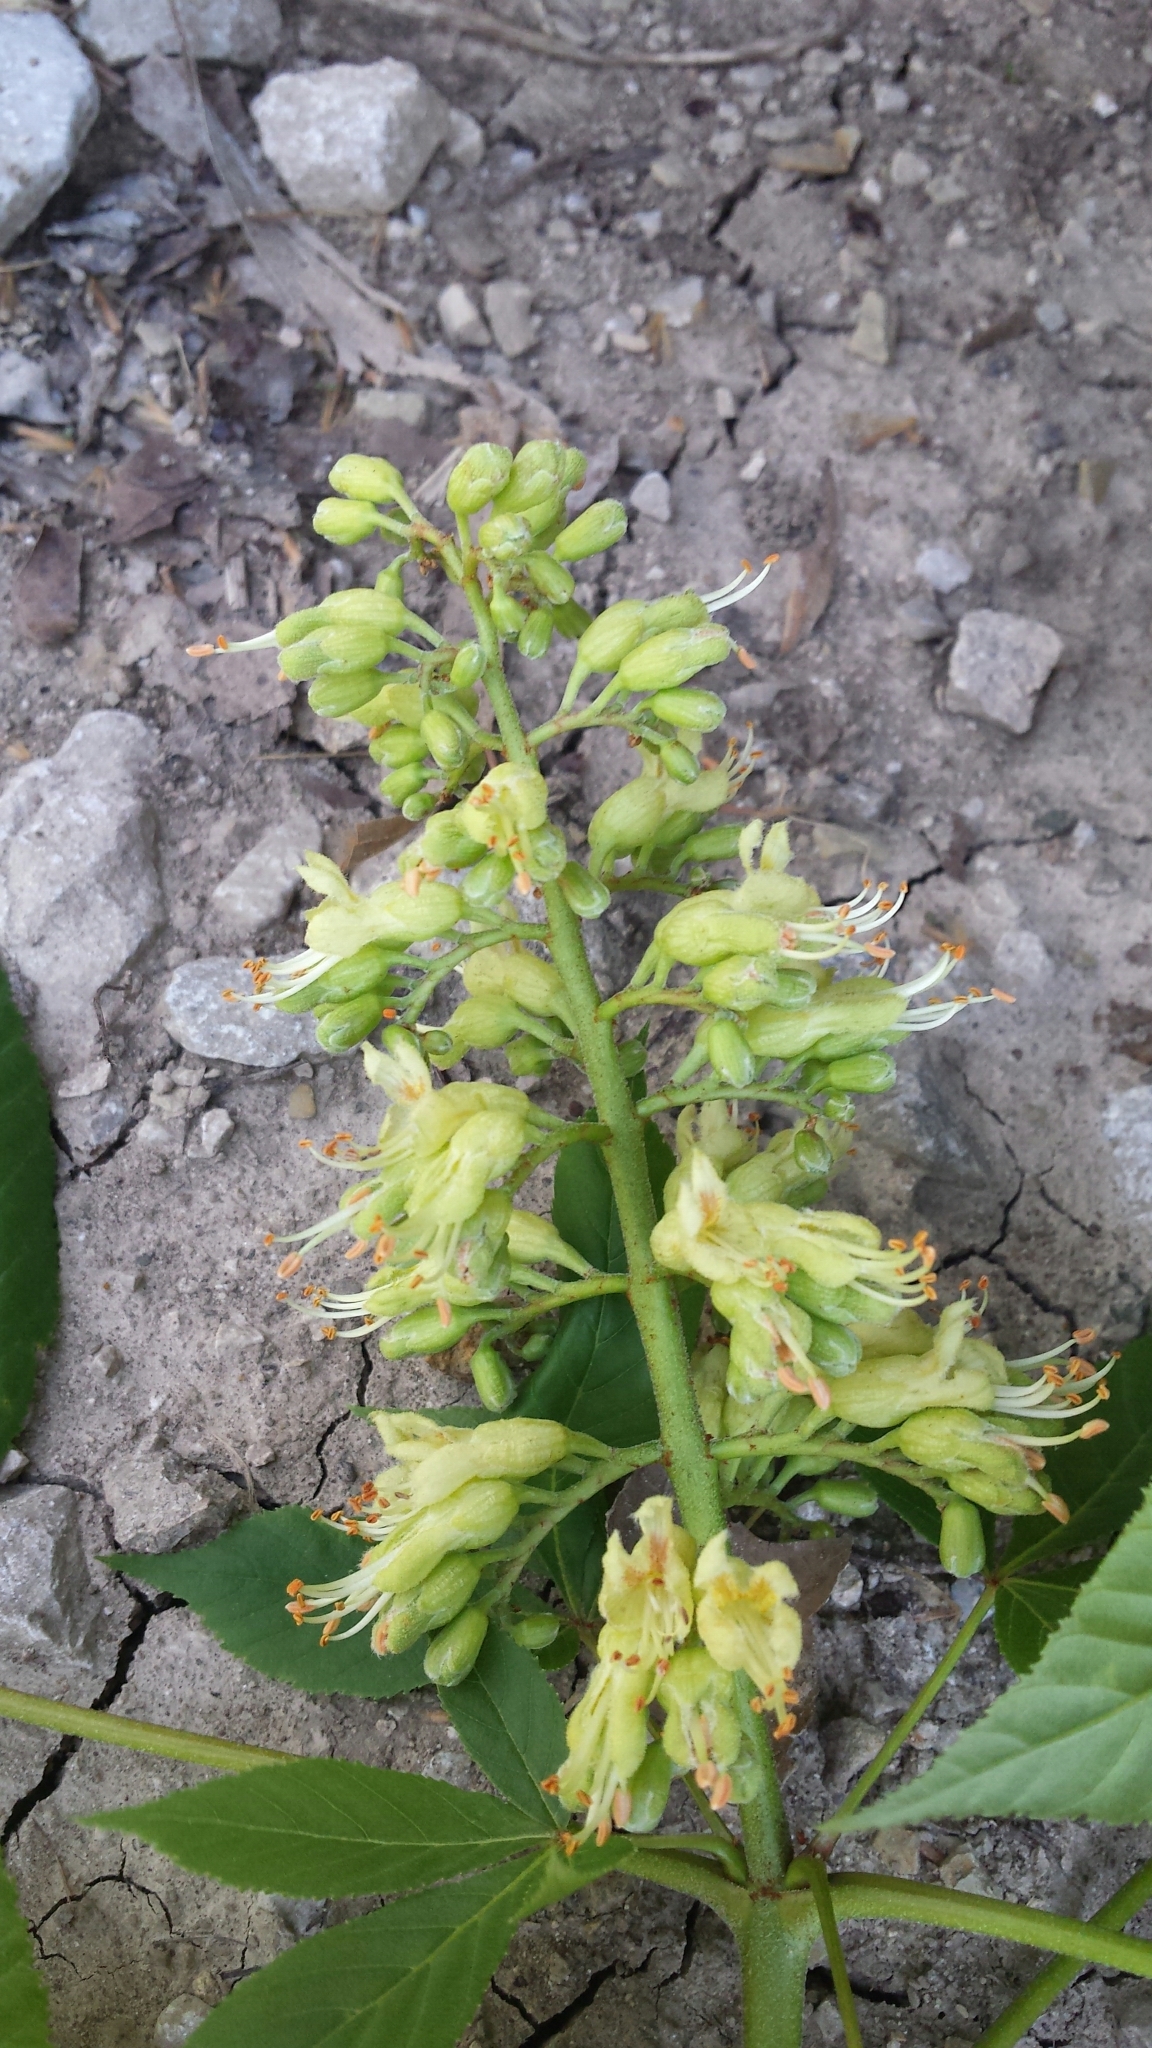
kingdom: Plantae
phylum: Tracheophyta
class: Magnoliopsida
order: Sapindales
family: Sapindaceae
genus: Aesculus
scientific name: Aesculus glabra
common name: Ohio buckeye
